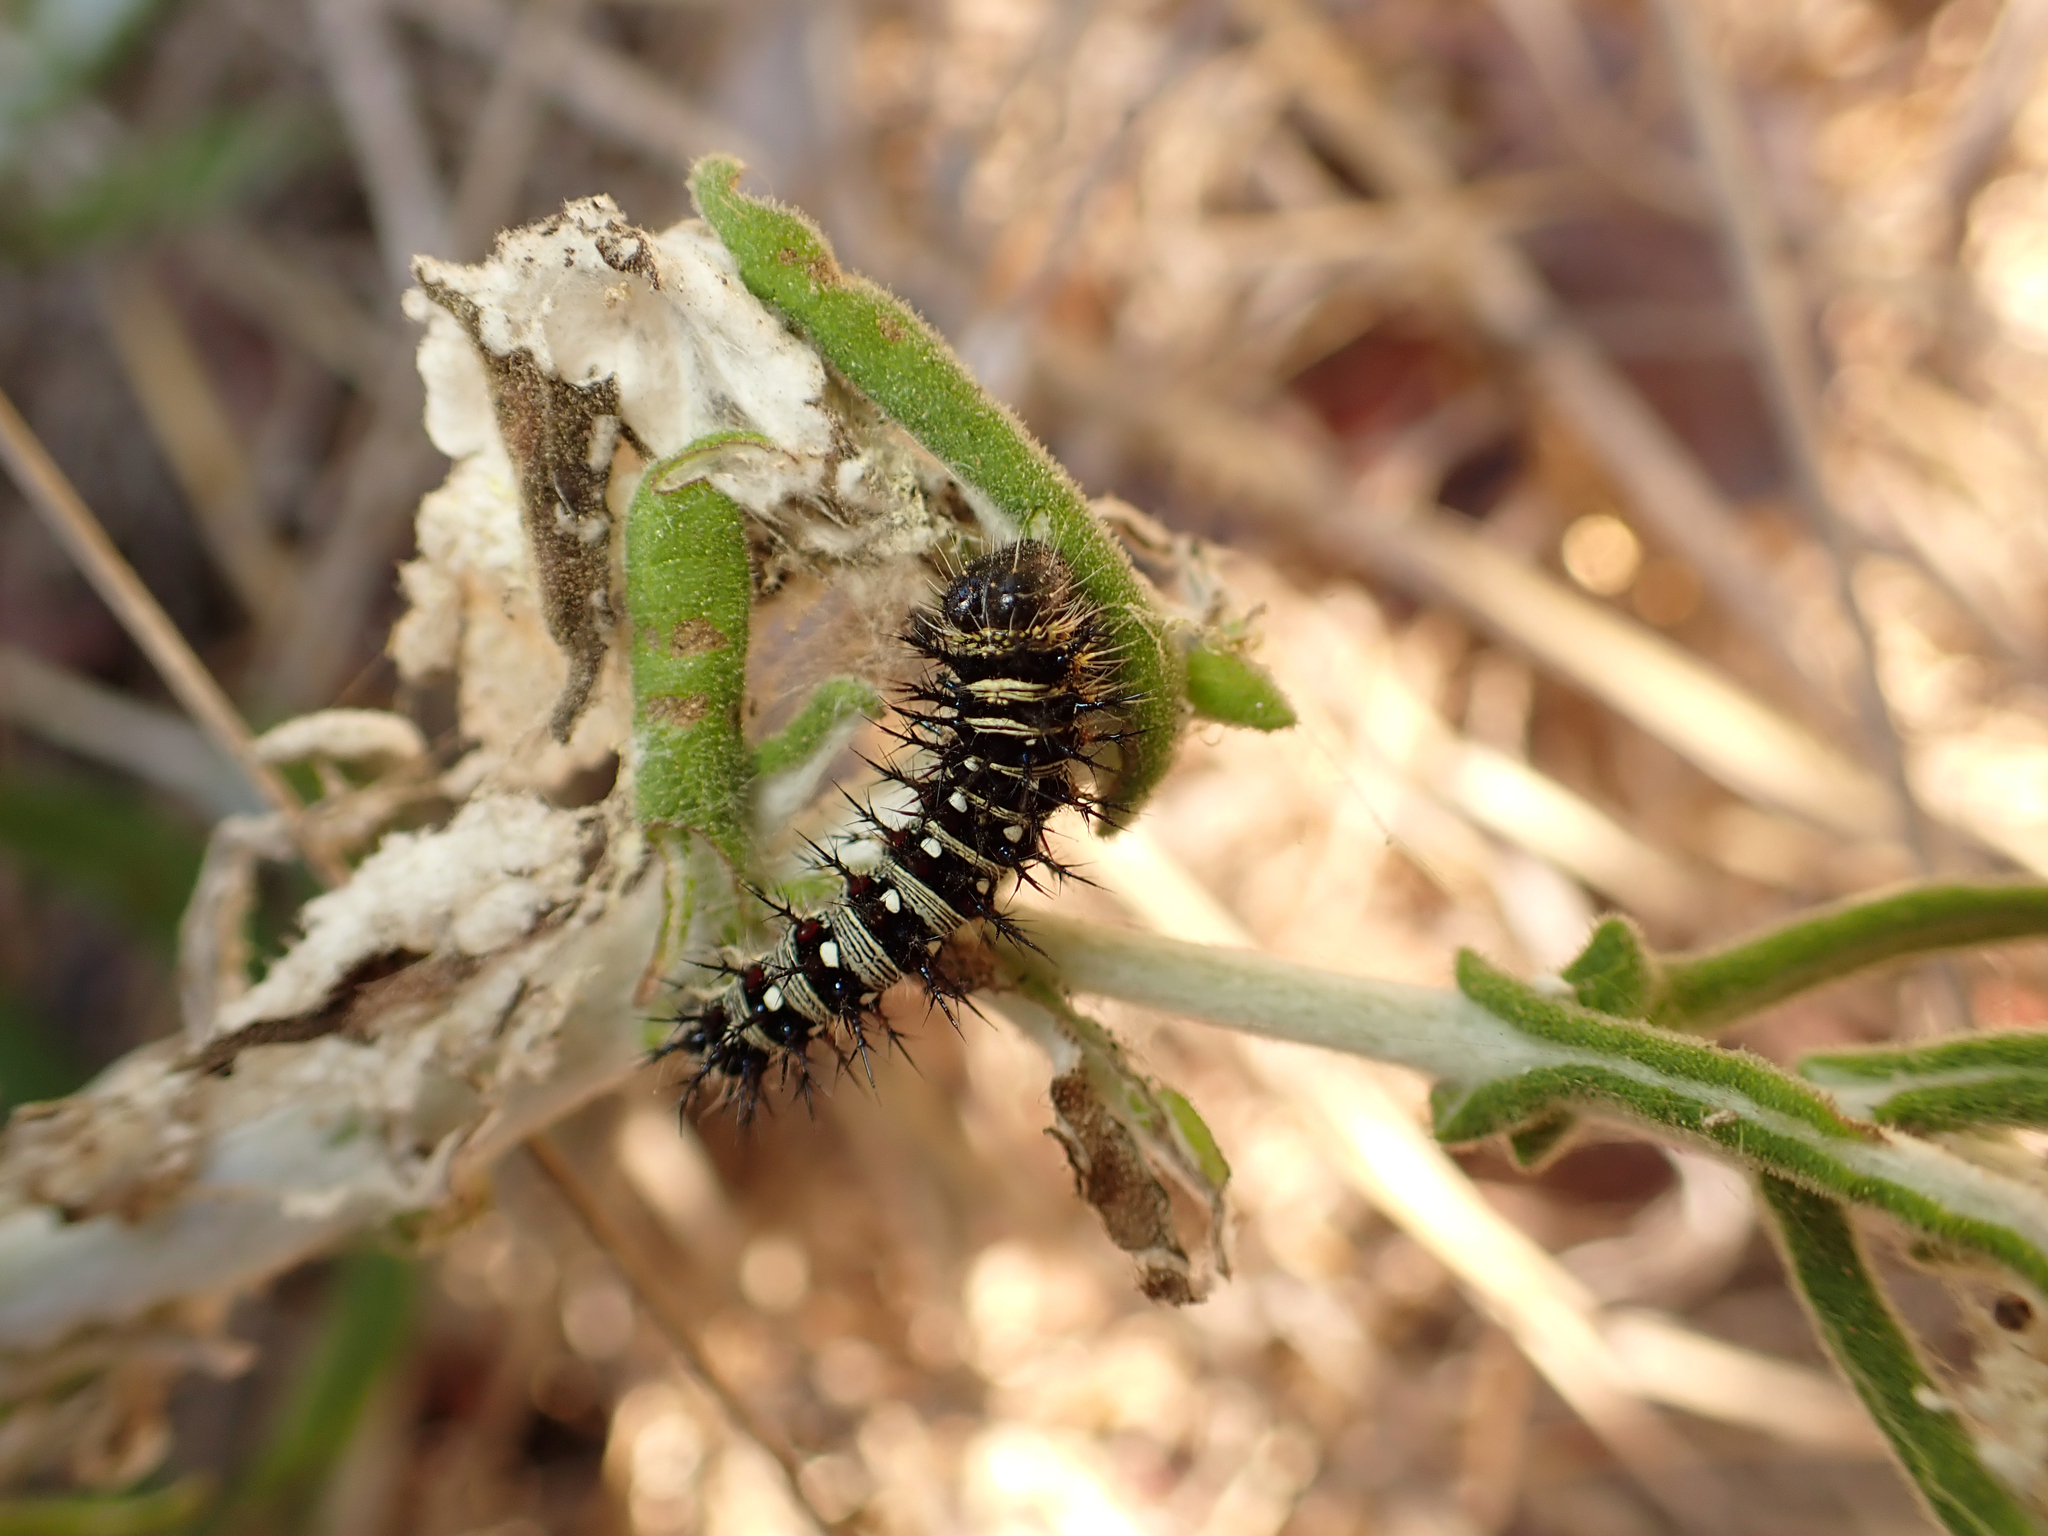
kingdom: Animalia
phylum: Arthropoda
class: Insecta
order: Lepidoptera
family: Nymphalidae
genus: Vanessa
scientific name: Vanessa virginiensis
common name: American lady
